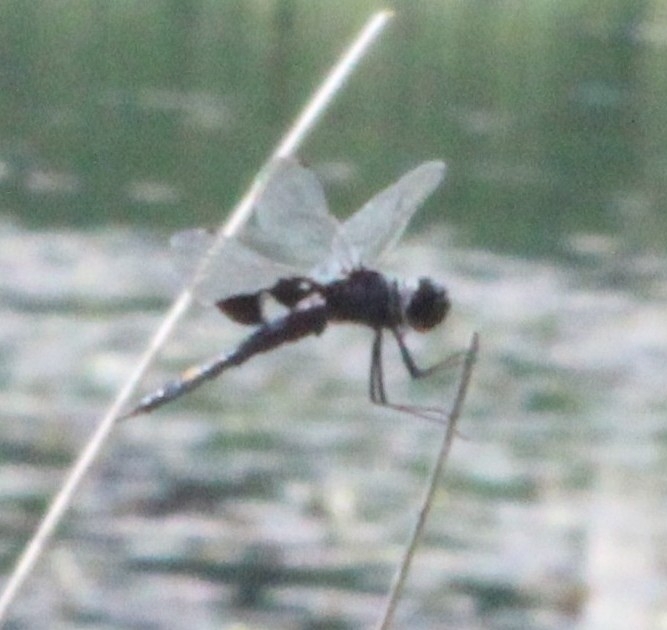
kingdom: Animalia
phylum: Arthropoda
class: Insecta
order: Odonata
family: Libellulidae
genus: Tramea
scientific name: Tramea lacerata
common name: Black saddlebags
